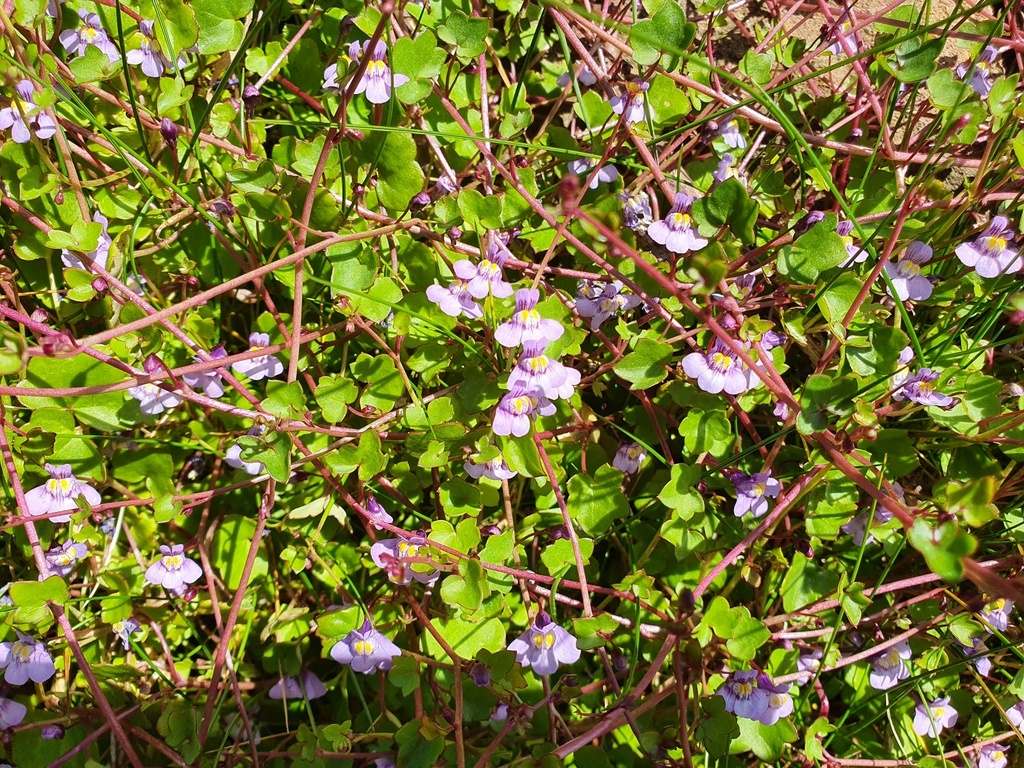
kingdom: Plantae
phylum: Tracheophyta
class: Magnoliopsida
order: Lamiales
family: Plantaginaceae
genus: Cymbalaria
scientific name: Cymbalaria muralis
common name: Ivy-leaved toadflax
